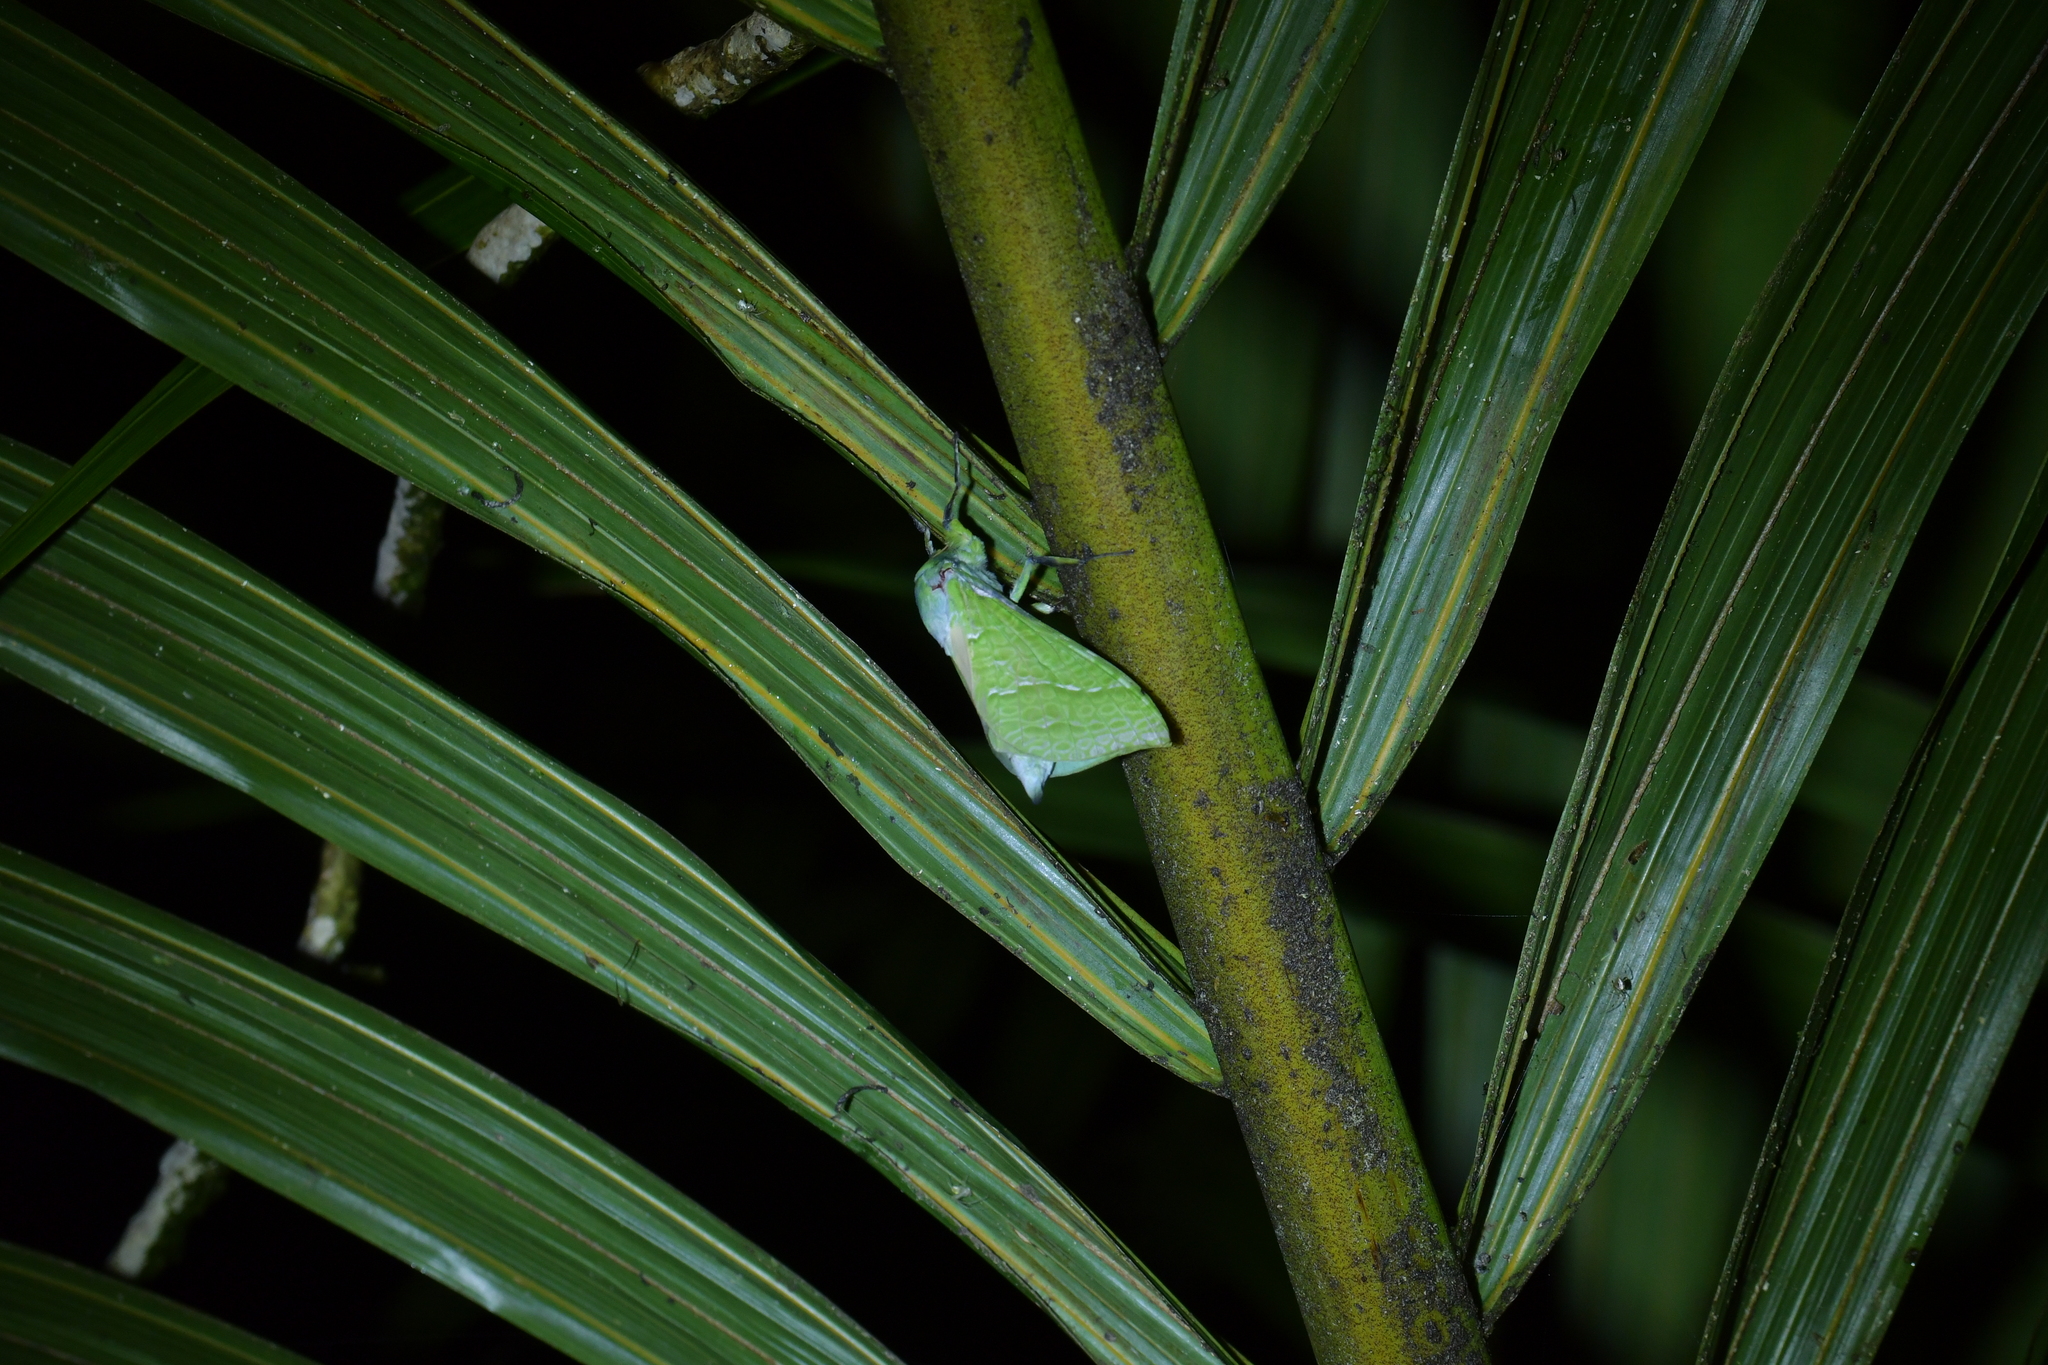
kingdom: Animalia
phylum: Arthropoda
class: Insecta
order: Lepidoptera
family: Hepialidae
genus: Aenetus
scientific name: Aenetus virescens
